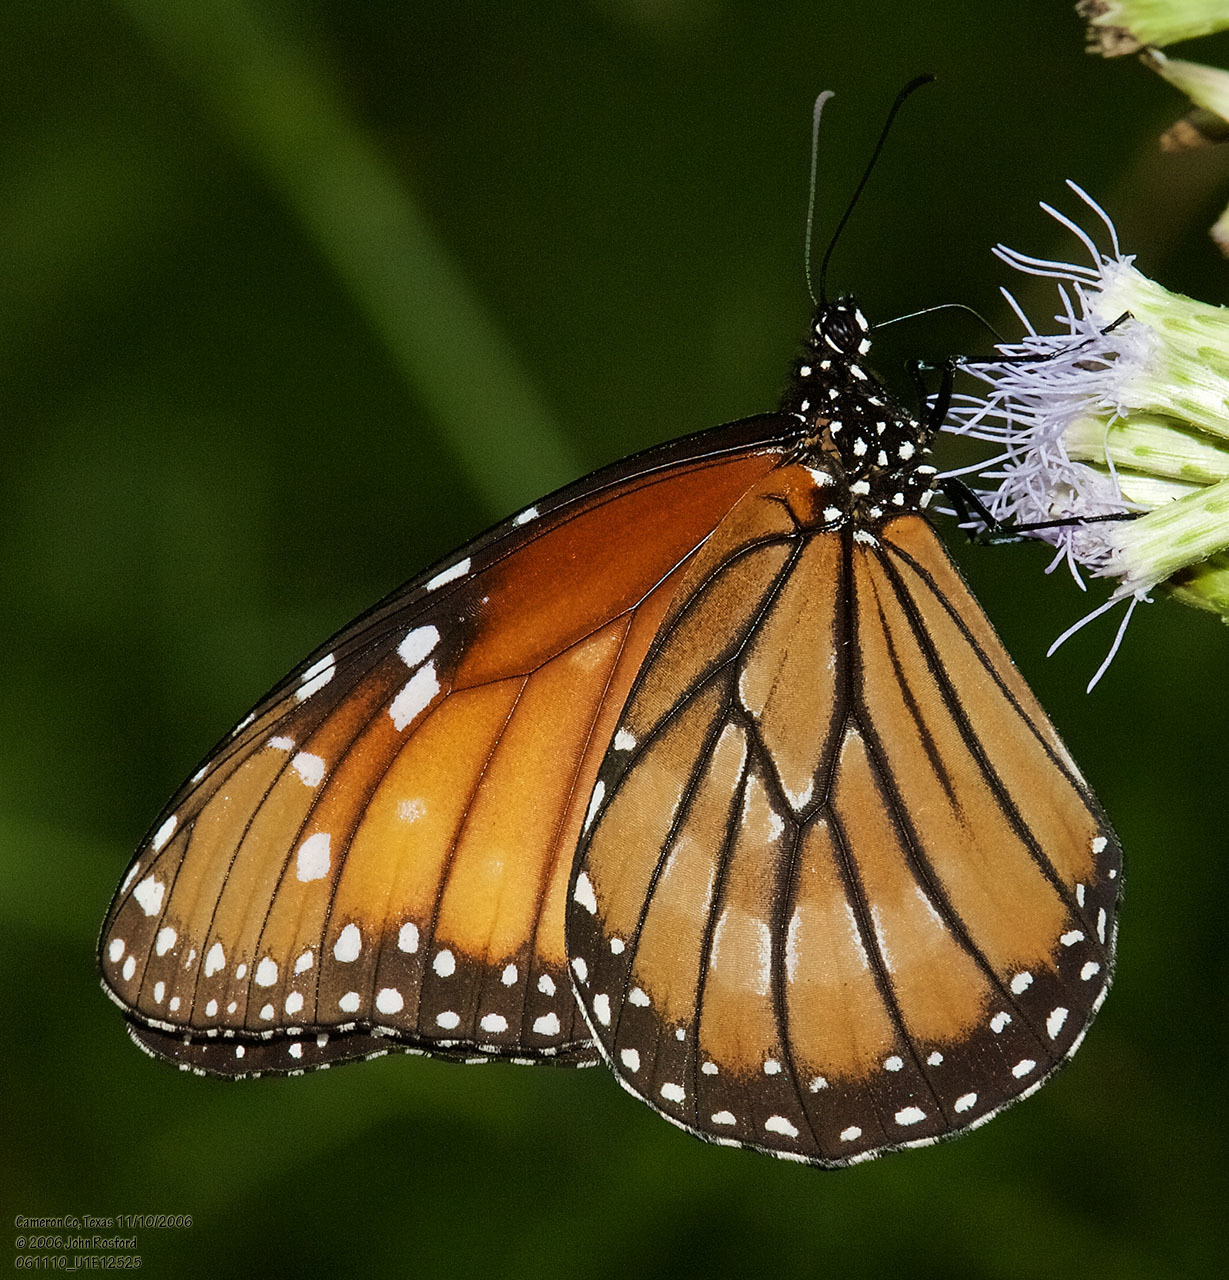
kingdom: Animalia
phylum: Arthropoda
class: Insecta
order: Lepidoptera
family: Nymphalidae
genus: Danaus
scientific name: Danaus eresimus
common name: Soldier
